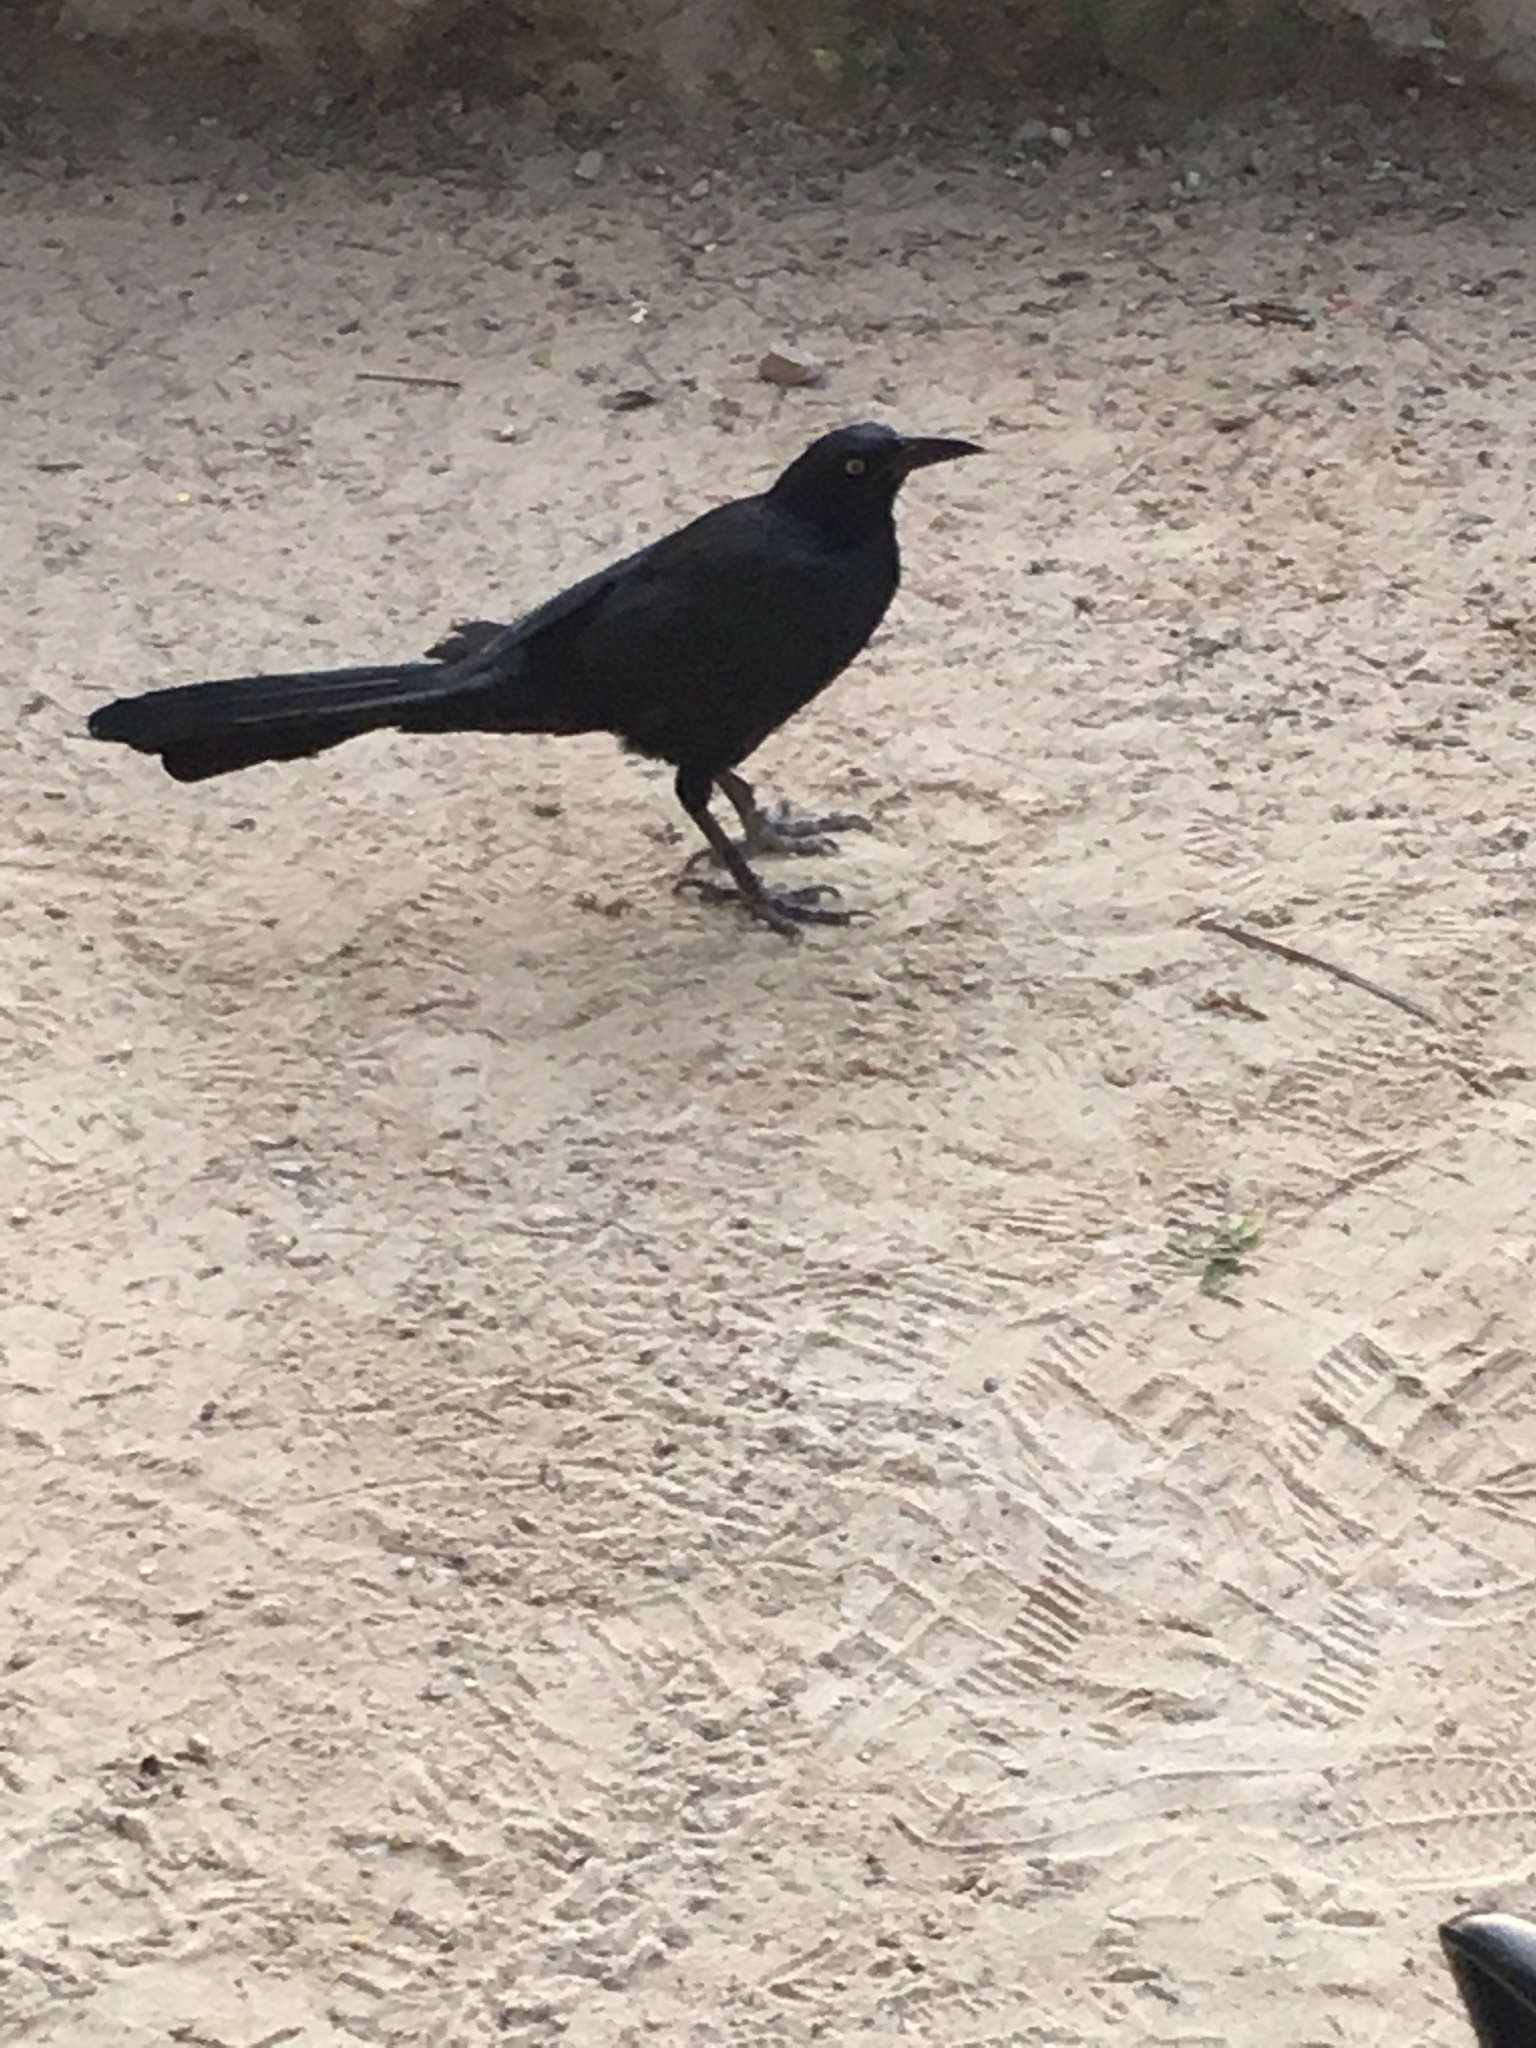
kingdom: Animalia
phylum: Chordata
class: Aves
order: Passeriformes
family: Icteridae
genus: Quiscalus
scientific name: Quiscalus mexicanus
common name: Great-tailed grackle
